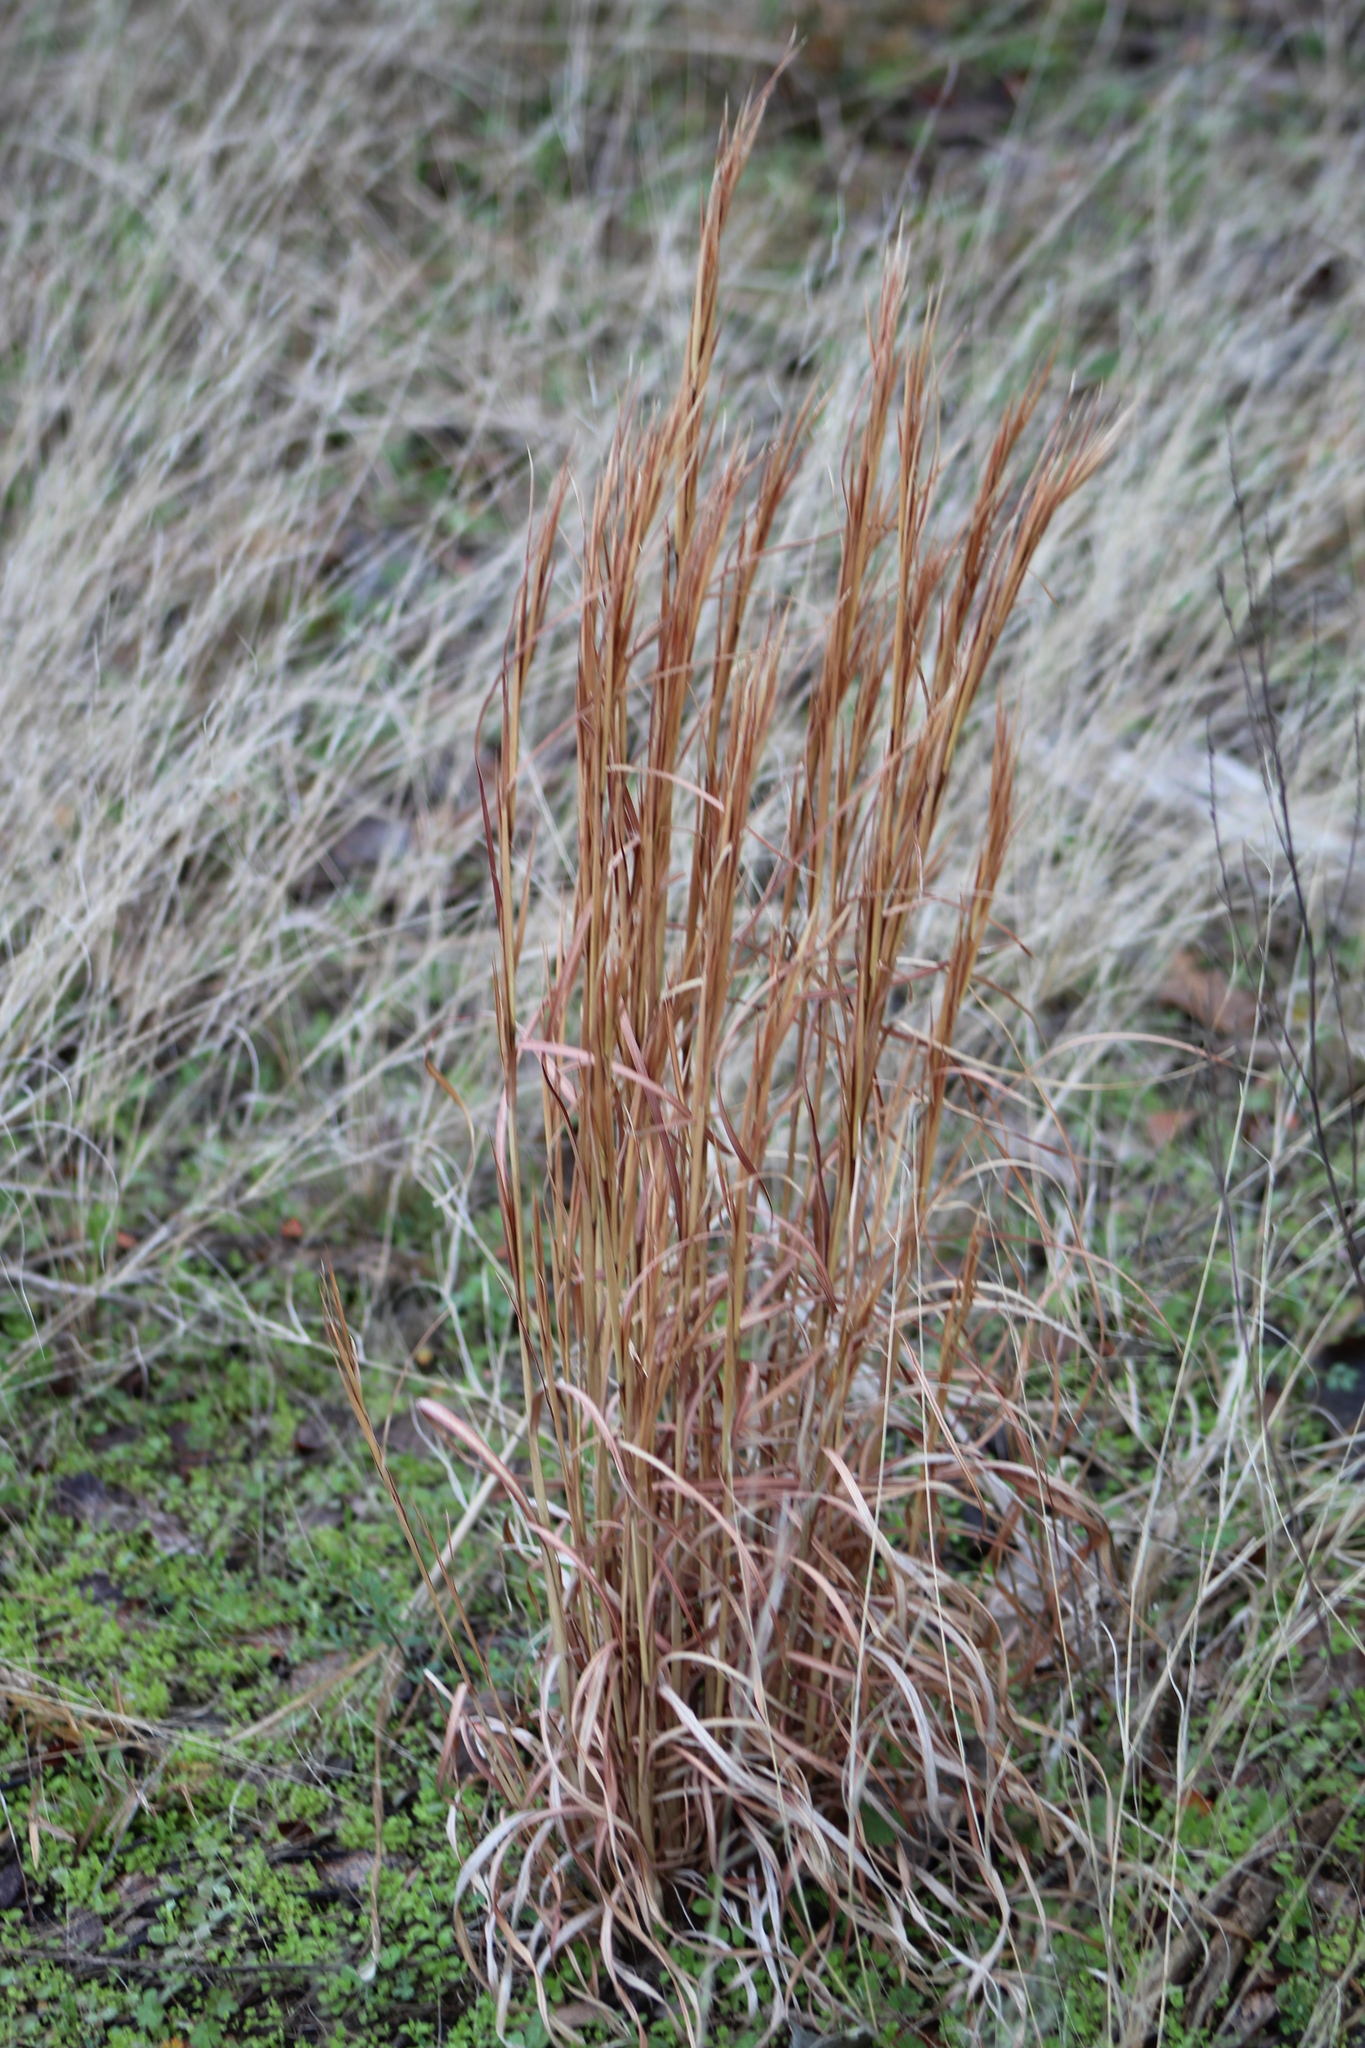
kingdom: Plantae
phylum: Tracheophyta
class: Liliopsida
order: Poales
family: Poaceae
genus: Schizachyrium
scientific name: Schizachyrium scoparium
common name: Little bluestem
